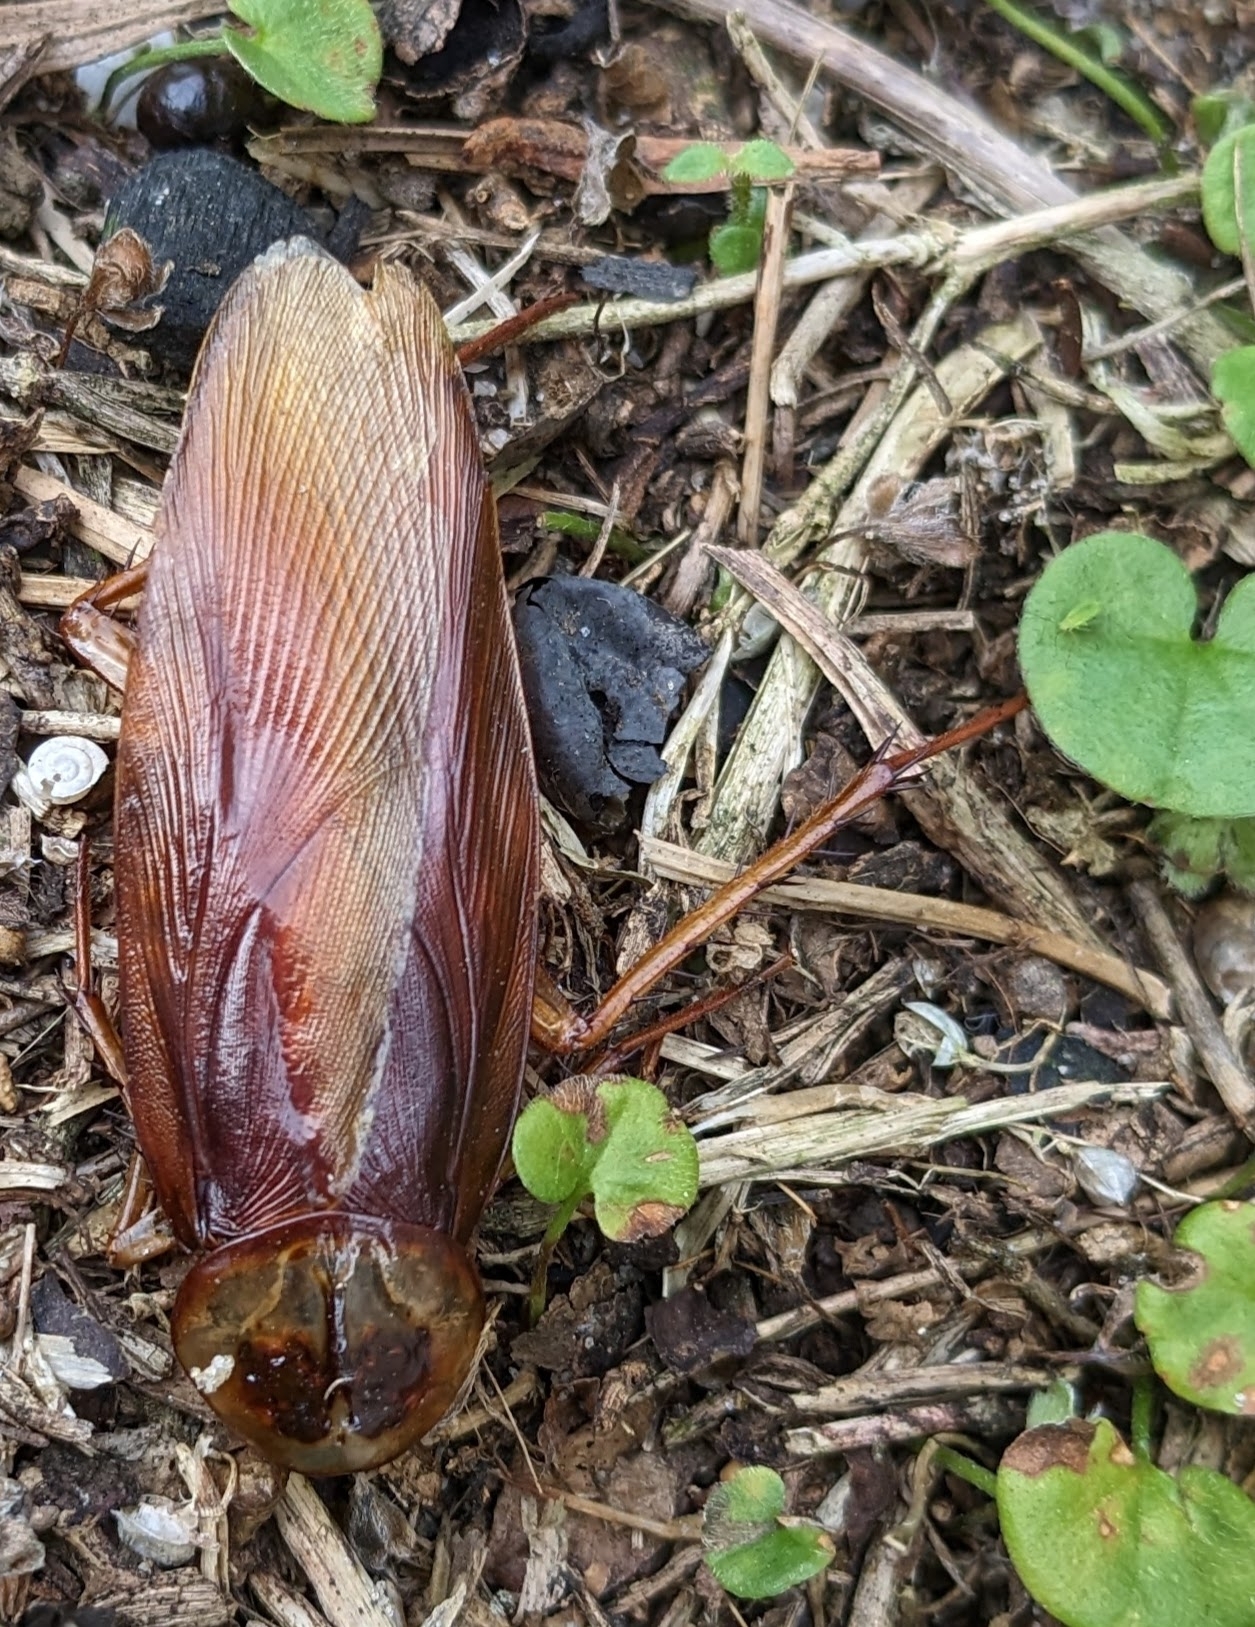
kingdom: Animalia
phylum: Arthropoda
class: Insecta
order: Blattodea
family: Blattidae
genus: Periplaneta
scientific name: Periplaneta americana
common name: American cockroach
